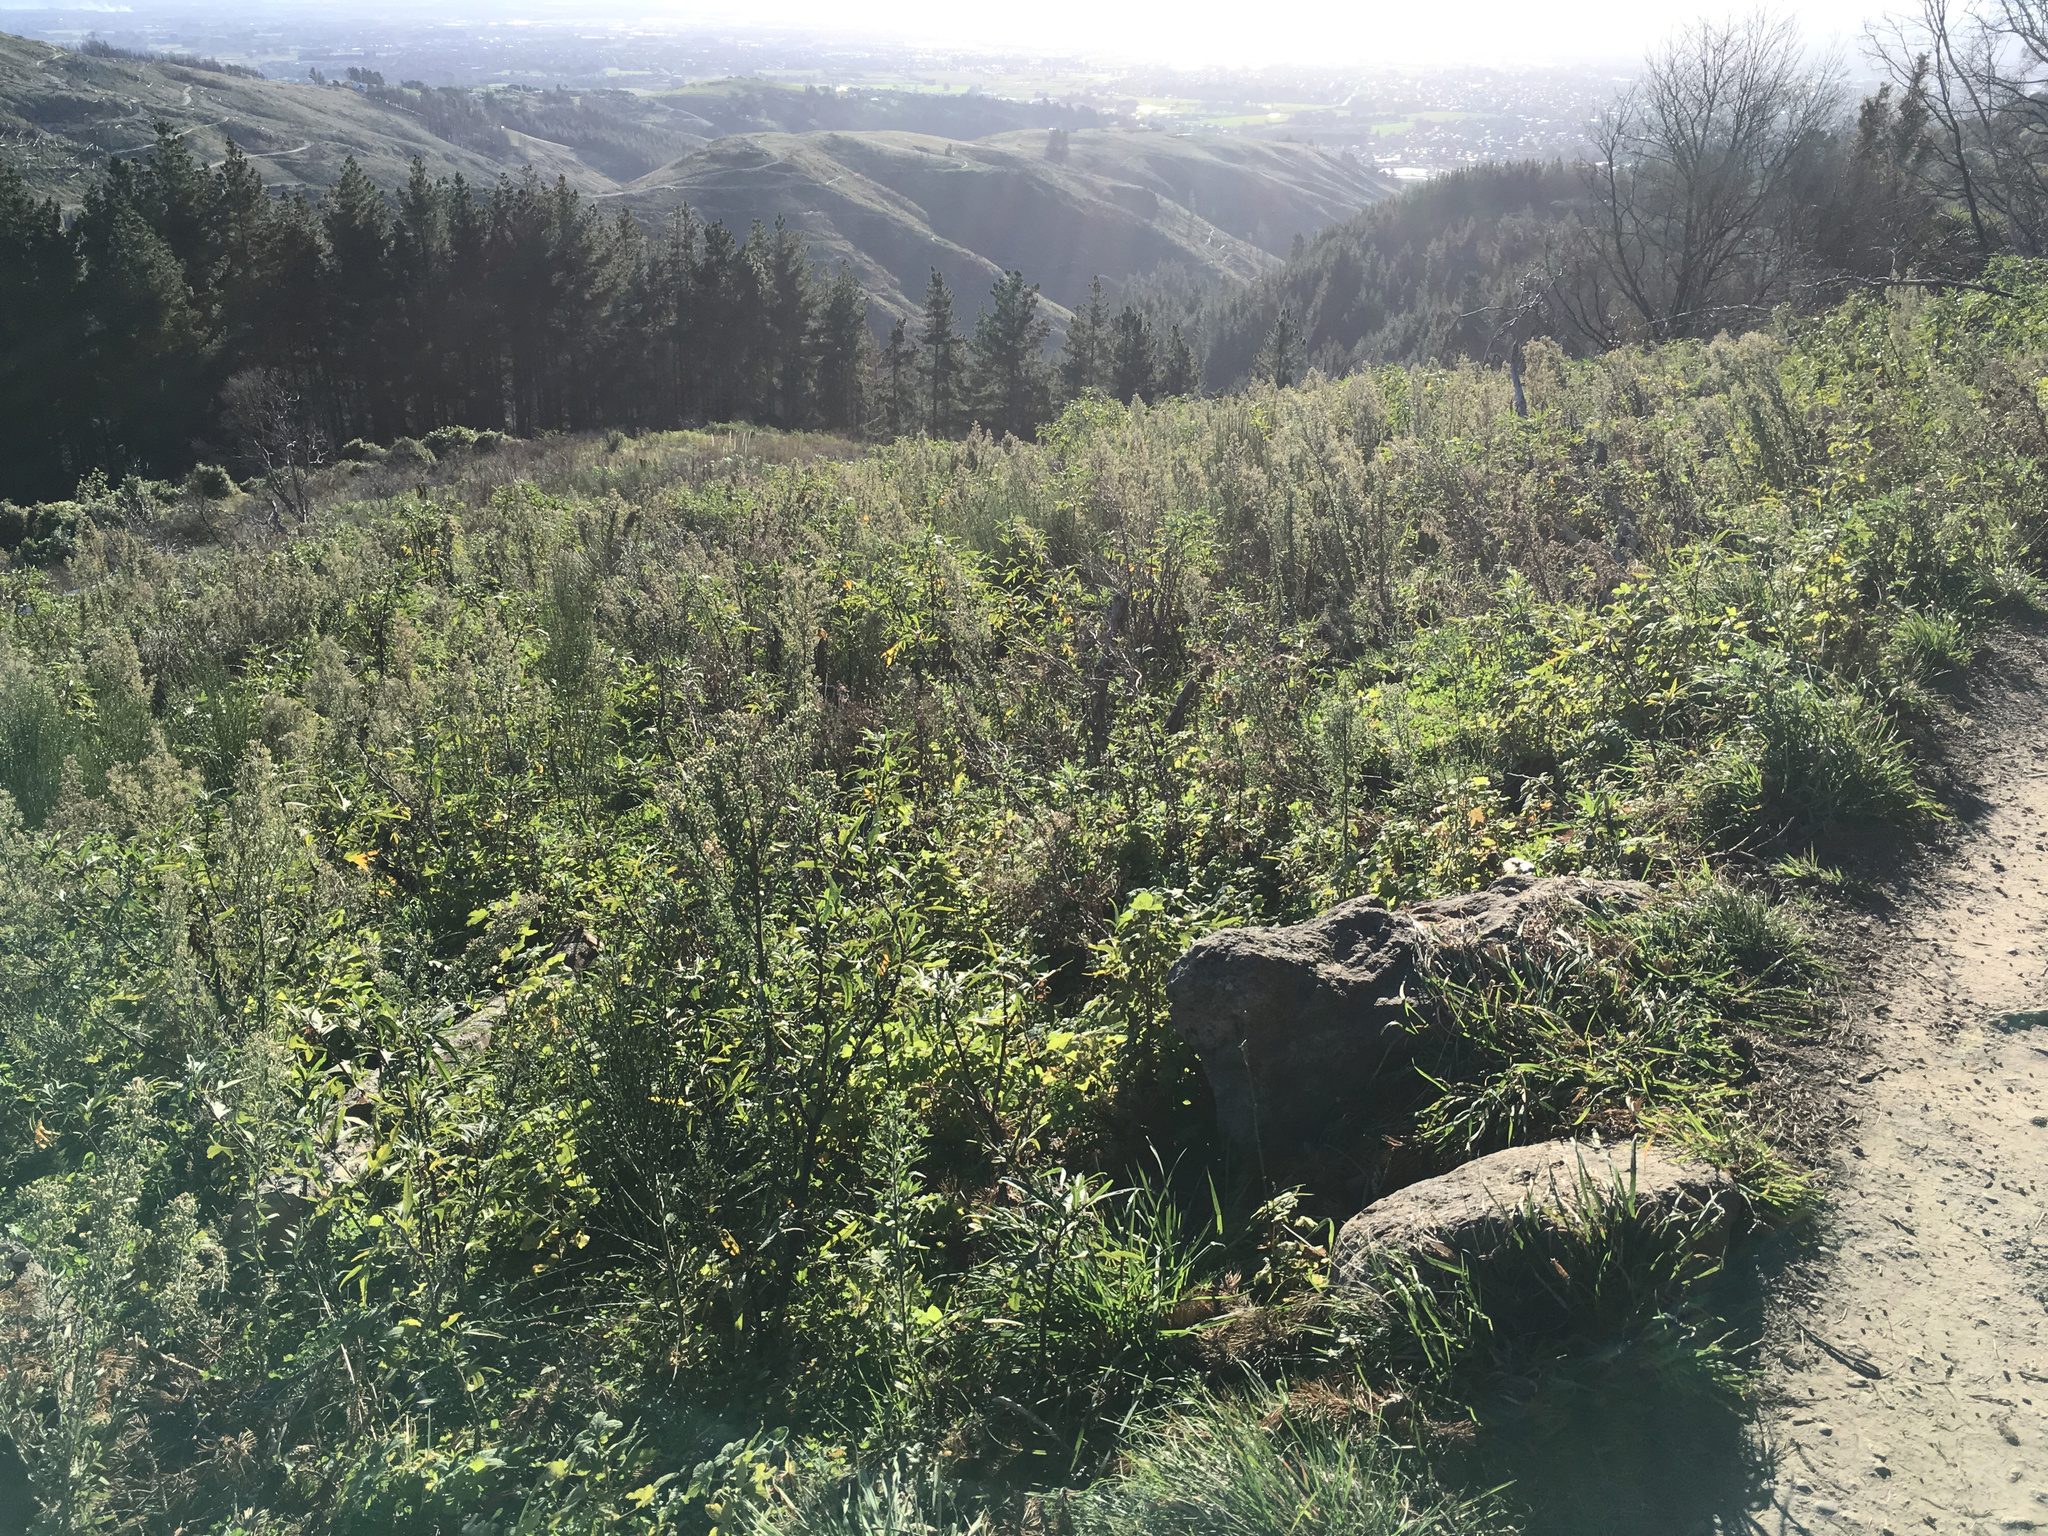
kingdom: Plantae
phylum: Tracheophyta
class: Magnoliopsida
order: Fabales
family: Fabaceae
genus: Cytisus
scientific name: Cytisus scoparius
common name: Scotch broom
